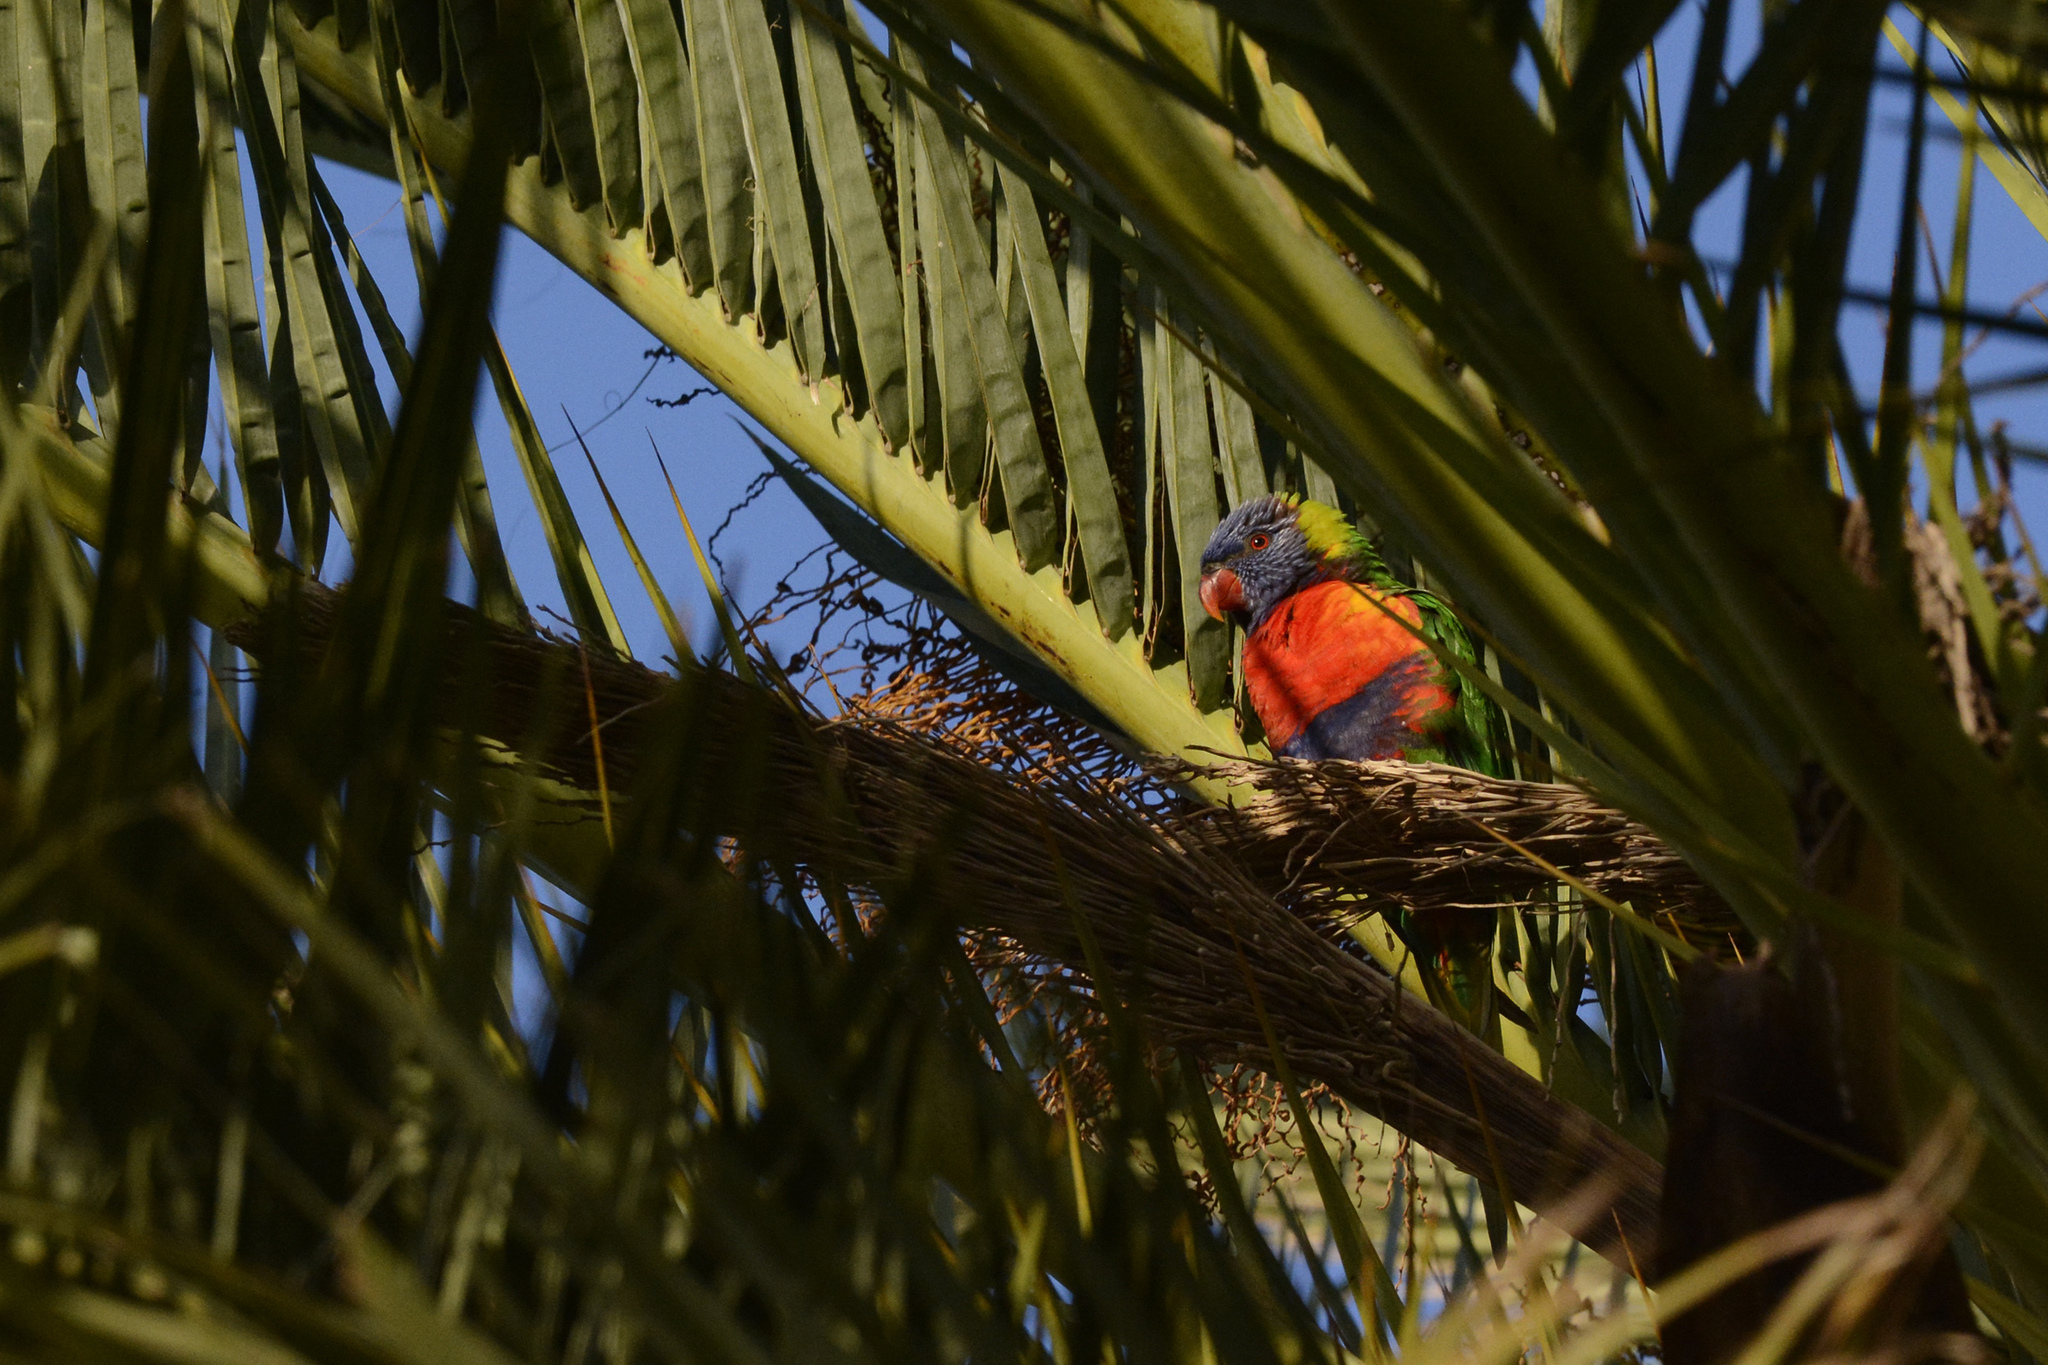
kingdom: Animalia
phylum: Chordata
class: Aves
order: Psittaciformes
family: Psittacidae
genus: Trichoglossus
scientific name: Trichoglossus haematodus
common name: Coconut lorikeet
